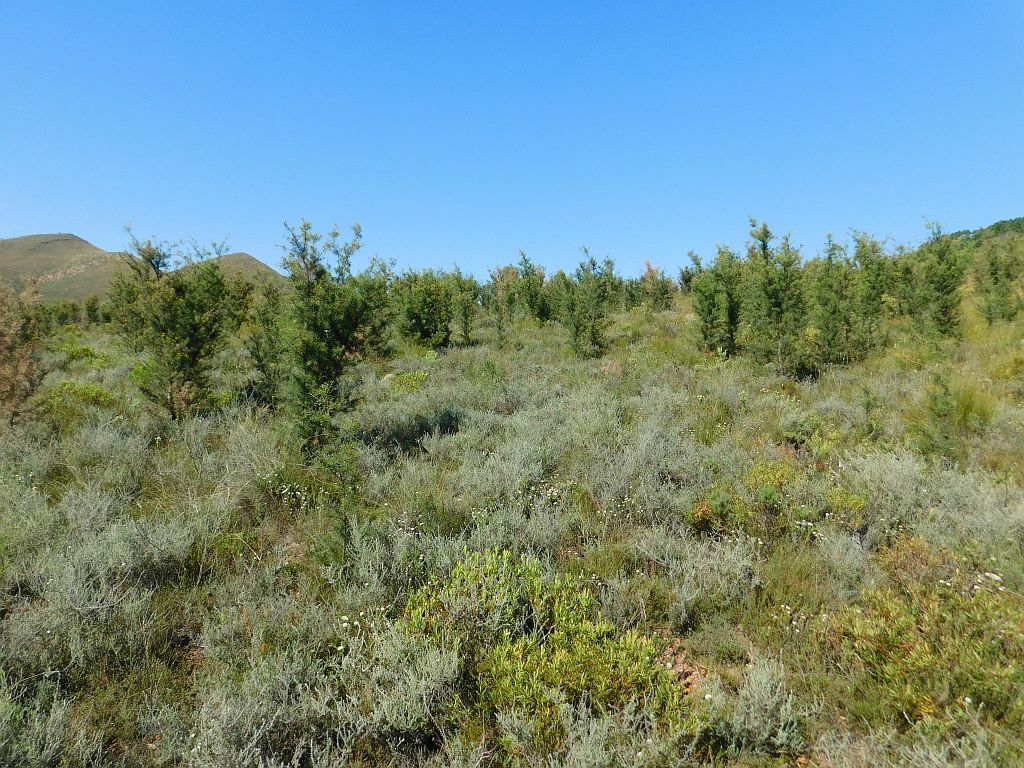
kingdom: Plantae
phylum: Tracheophyta
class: Magnoliopsida
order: Proteales
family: Proteaceae
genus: Hakea
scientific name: Hakea sericea
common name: Needle bush
